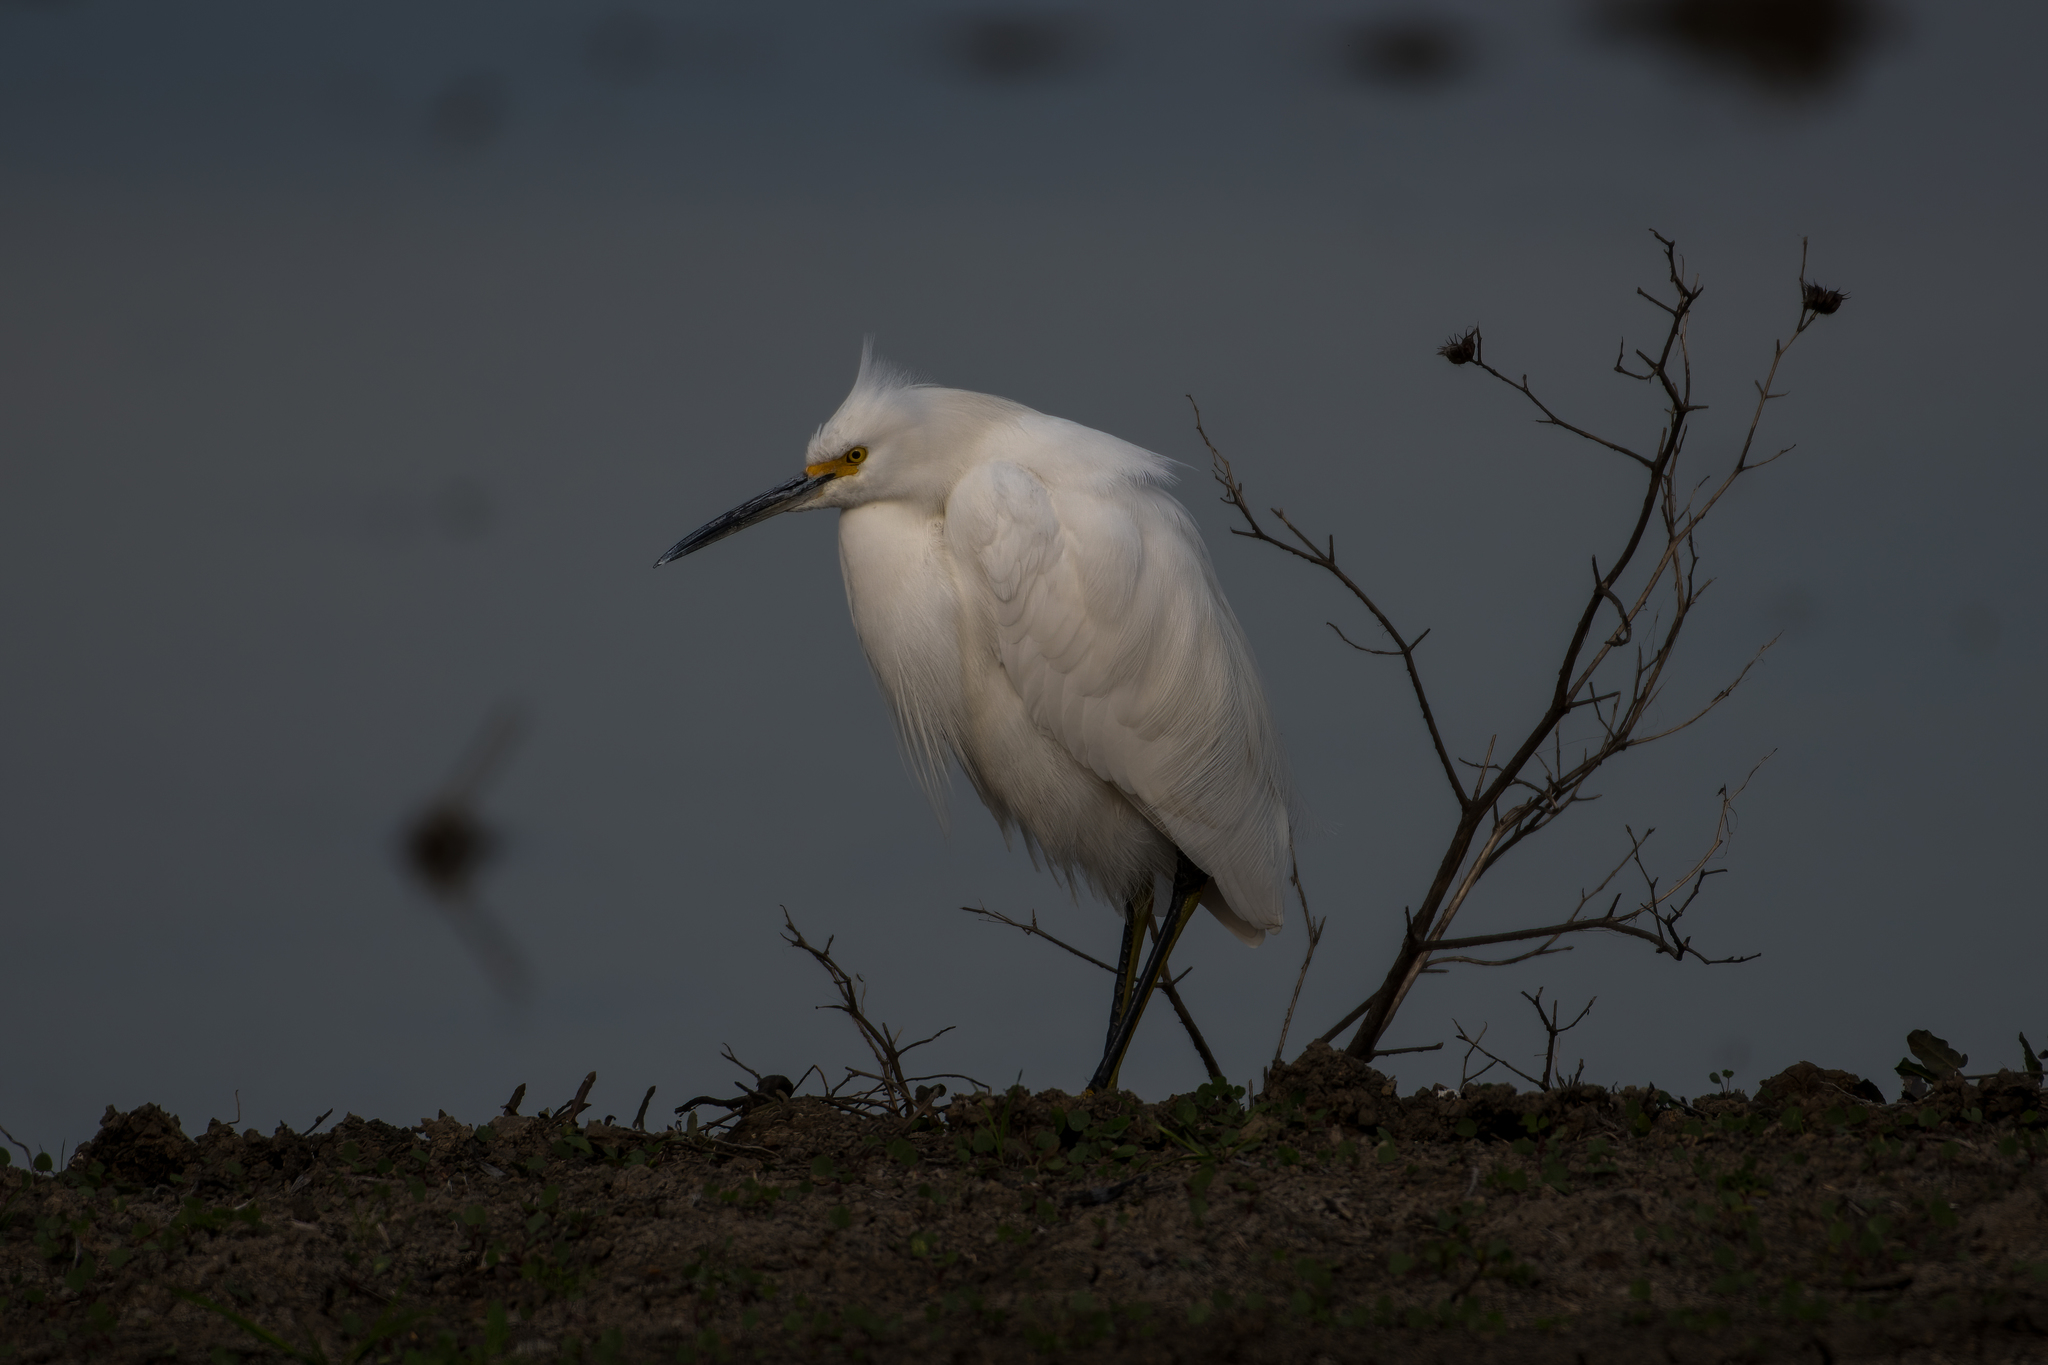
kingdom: Animalia
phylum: Chordata
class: Aves
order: Pelecaniformes
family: Ardeidae
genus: Egretta
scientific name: Egretta thula
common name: Snowy egret
